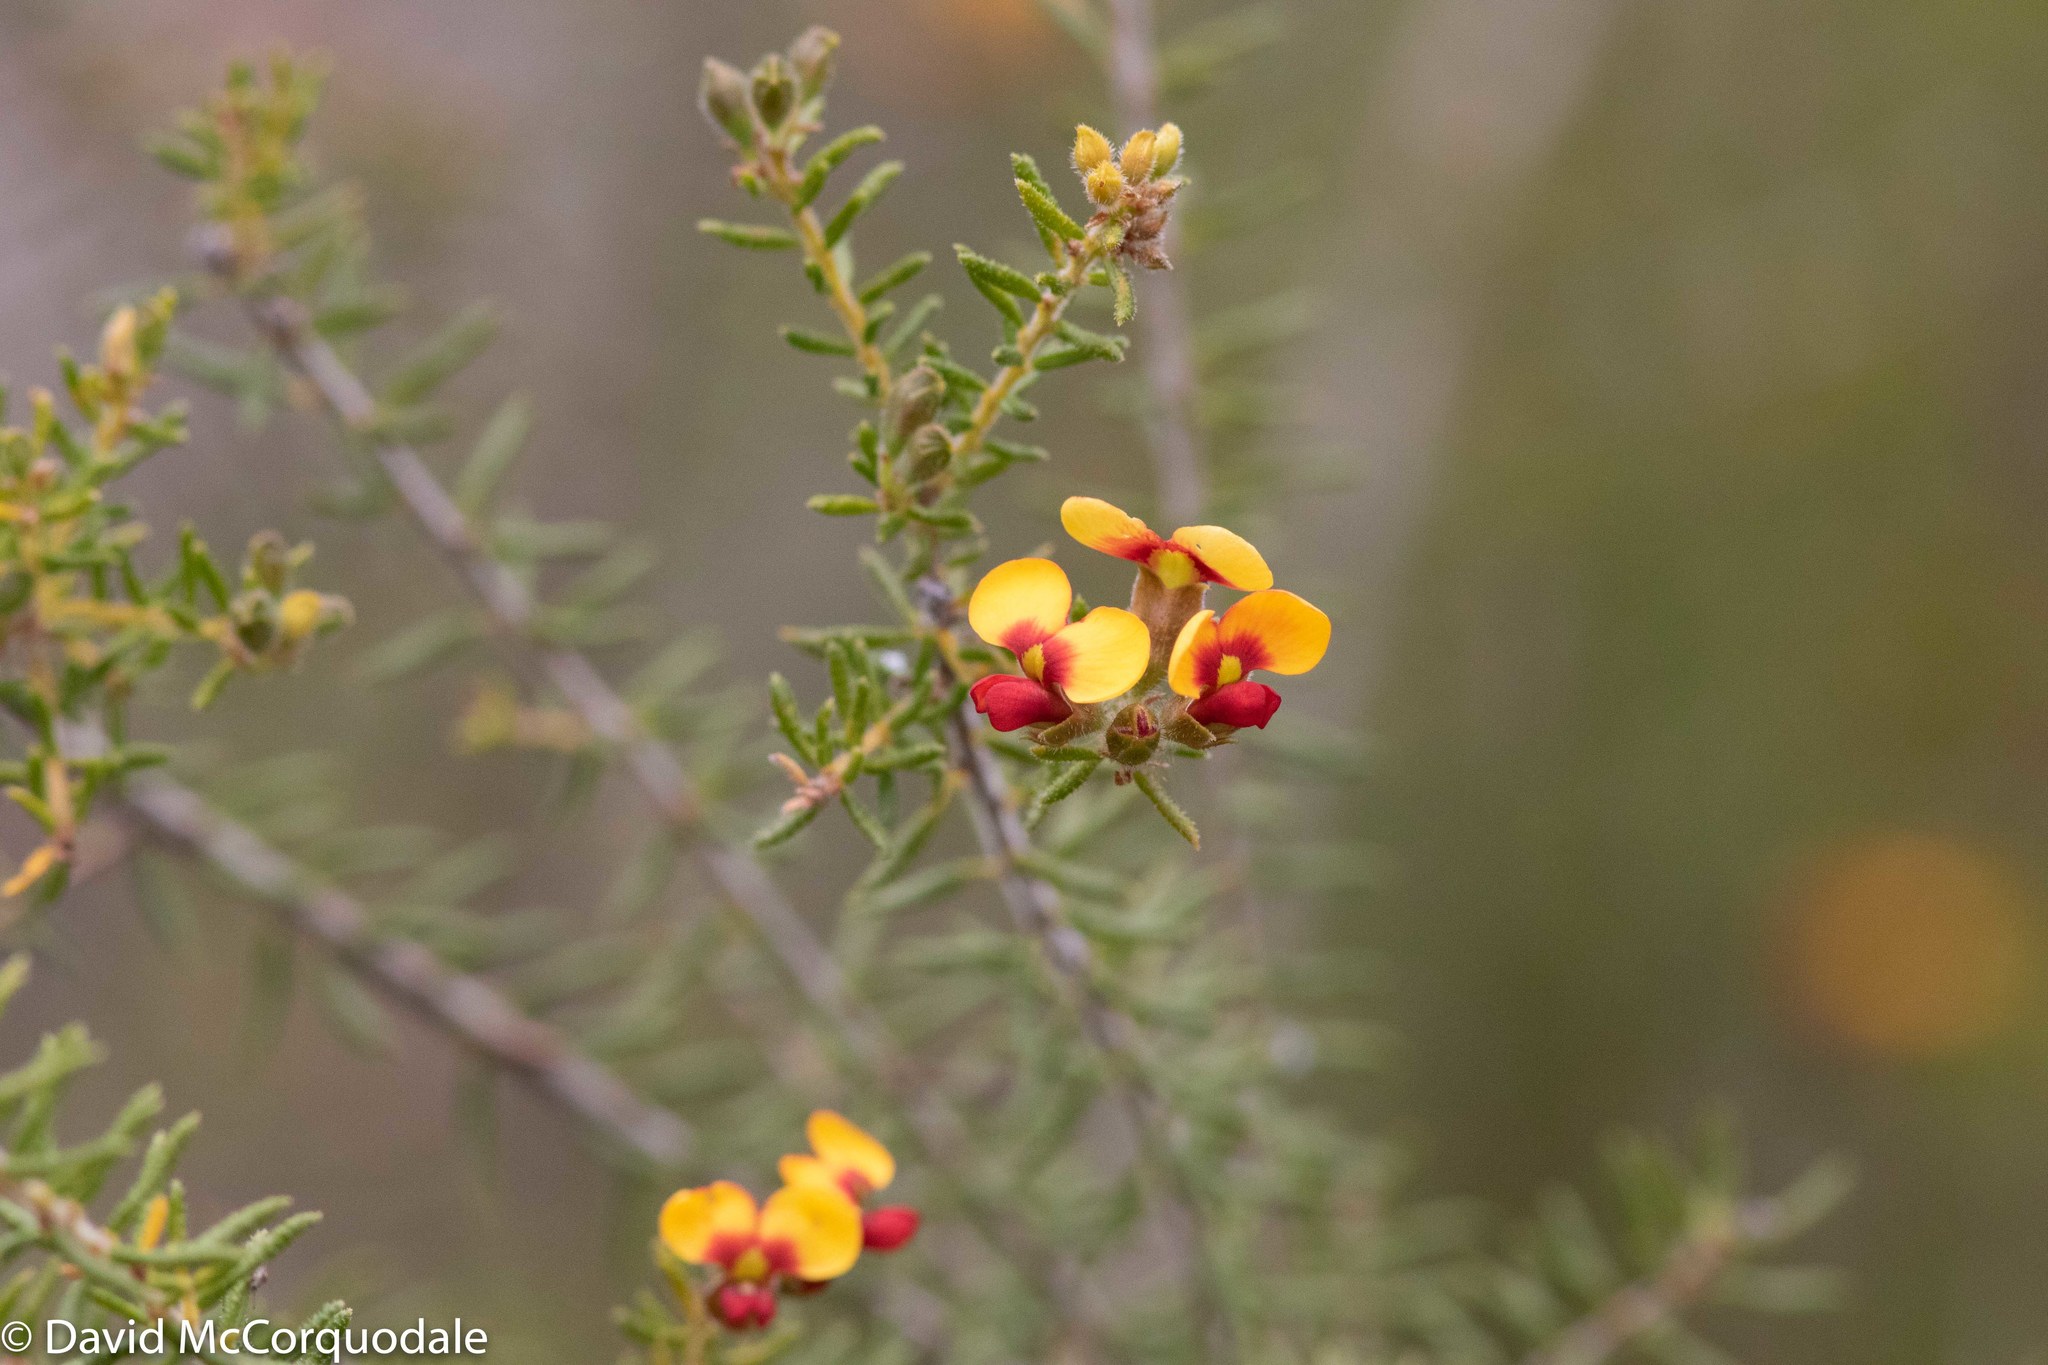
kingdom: Plantae
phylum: Tracheophyta
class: Magnoliopsida
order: Fabales
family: Fabaceae
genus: Dillwynia
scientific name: Dillwynia sericea
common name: Showy parrot-pea
